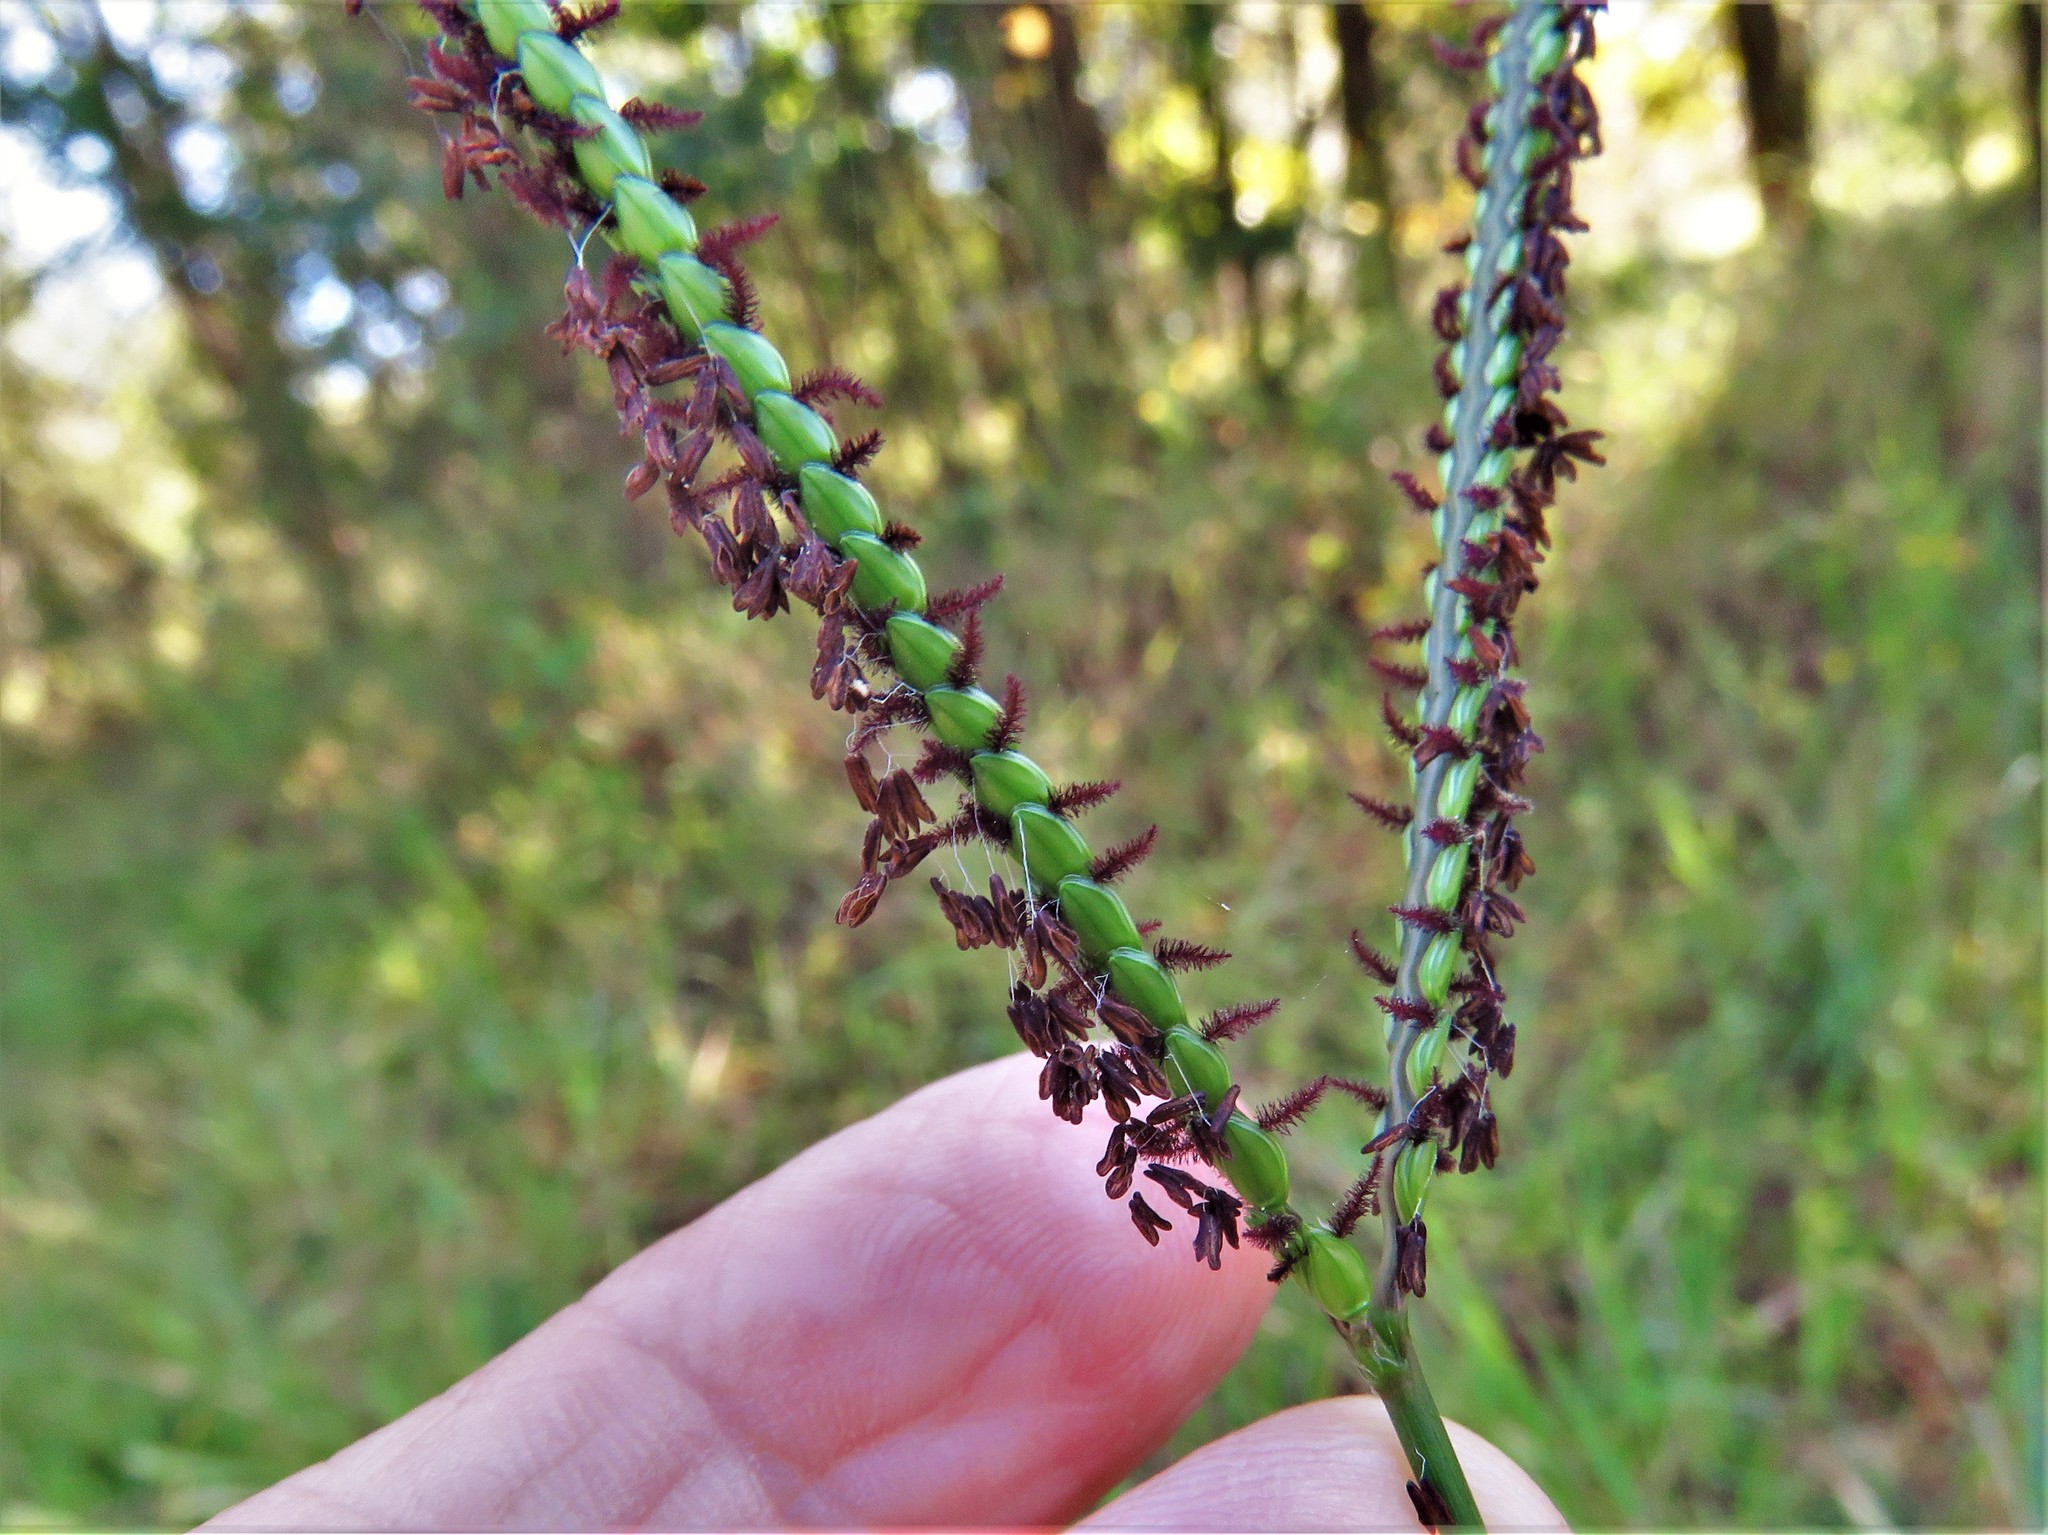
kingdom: Plantae
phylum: Tracheophyta
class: Liliopsida
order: Poales
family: Poaceae
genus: Paspalum
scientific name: Paspalum notatum
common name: Bahiagrass
